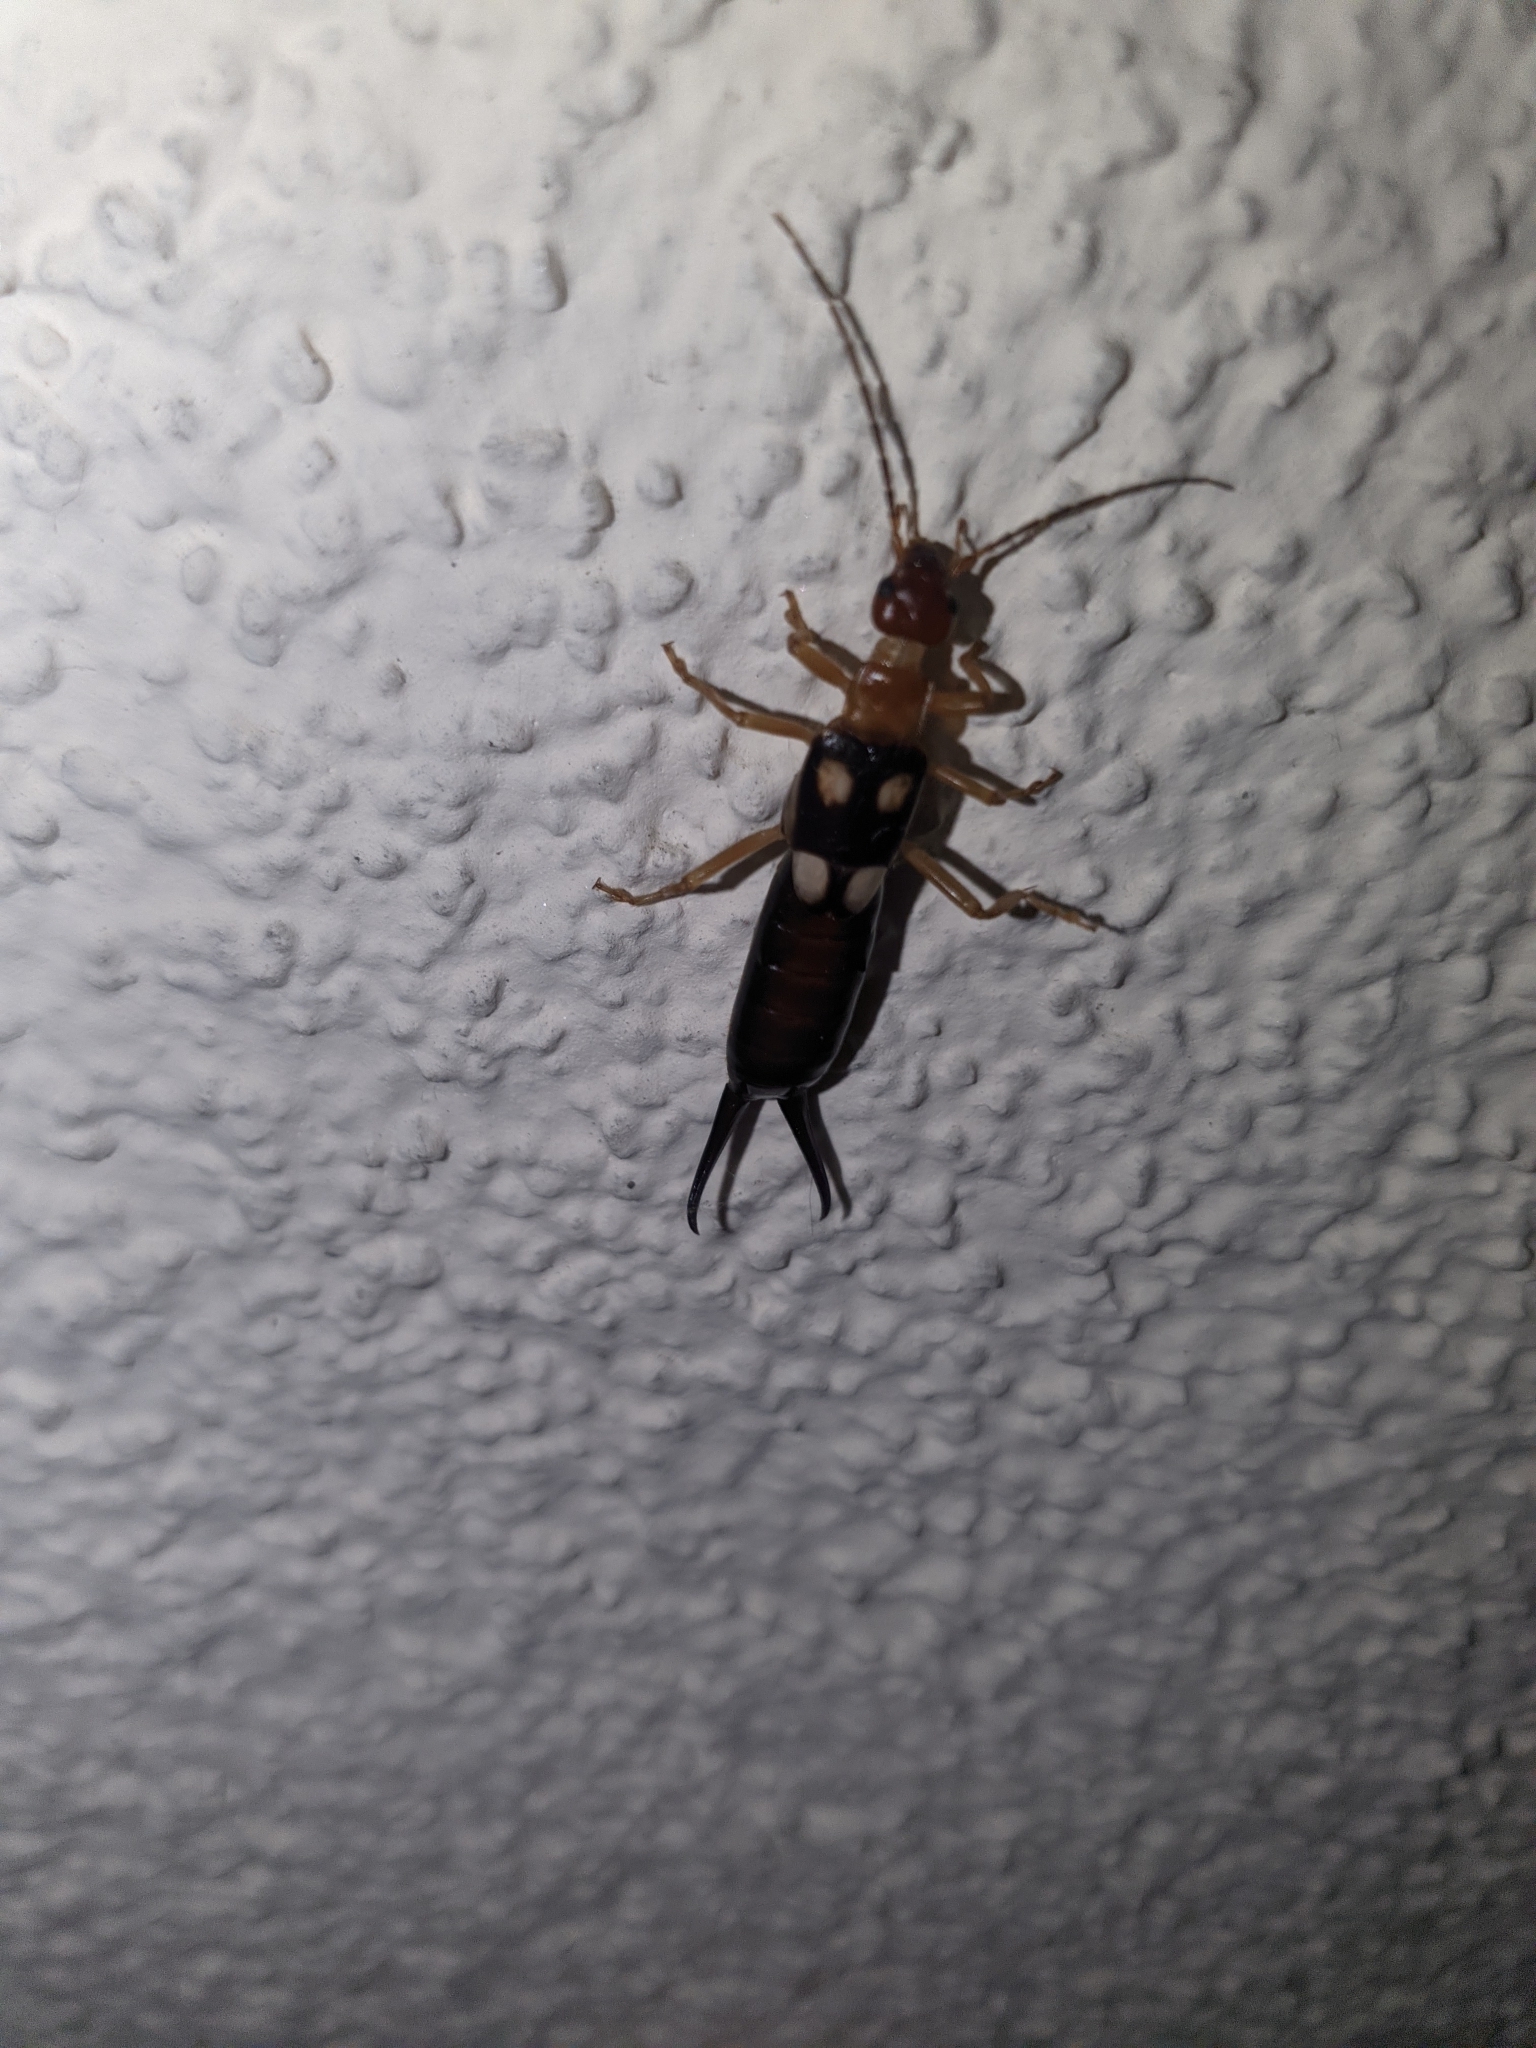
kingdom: Animalia
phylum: Arthropoda
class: Insecta
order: Dermaptera
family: Forficulidae
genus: Forficula
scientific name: Forficula smyrnensis
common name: Smyrna earwig
